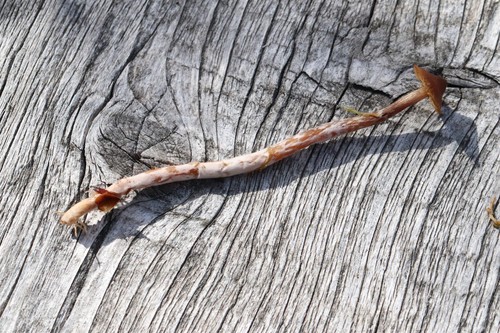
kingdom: Fungi
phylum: Basidiomycota
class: Agaricomycetes
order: Agaricales
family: Cortinariaceae
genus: Cortinarius
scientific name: Cortinarius flos-paludis
